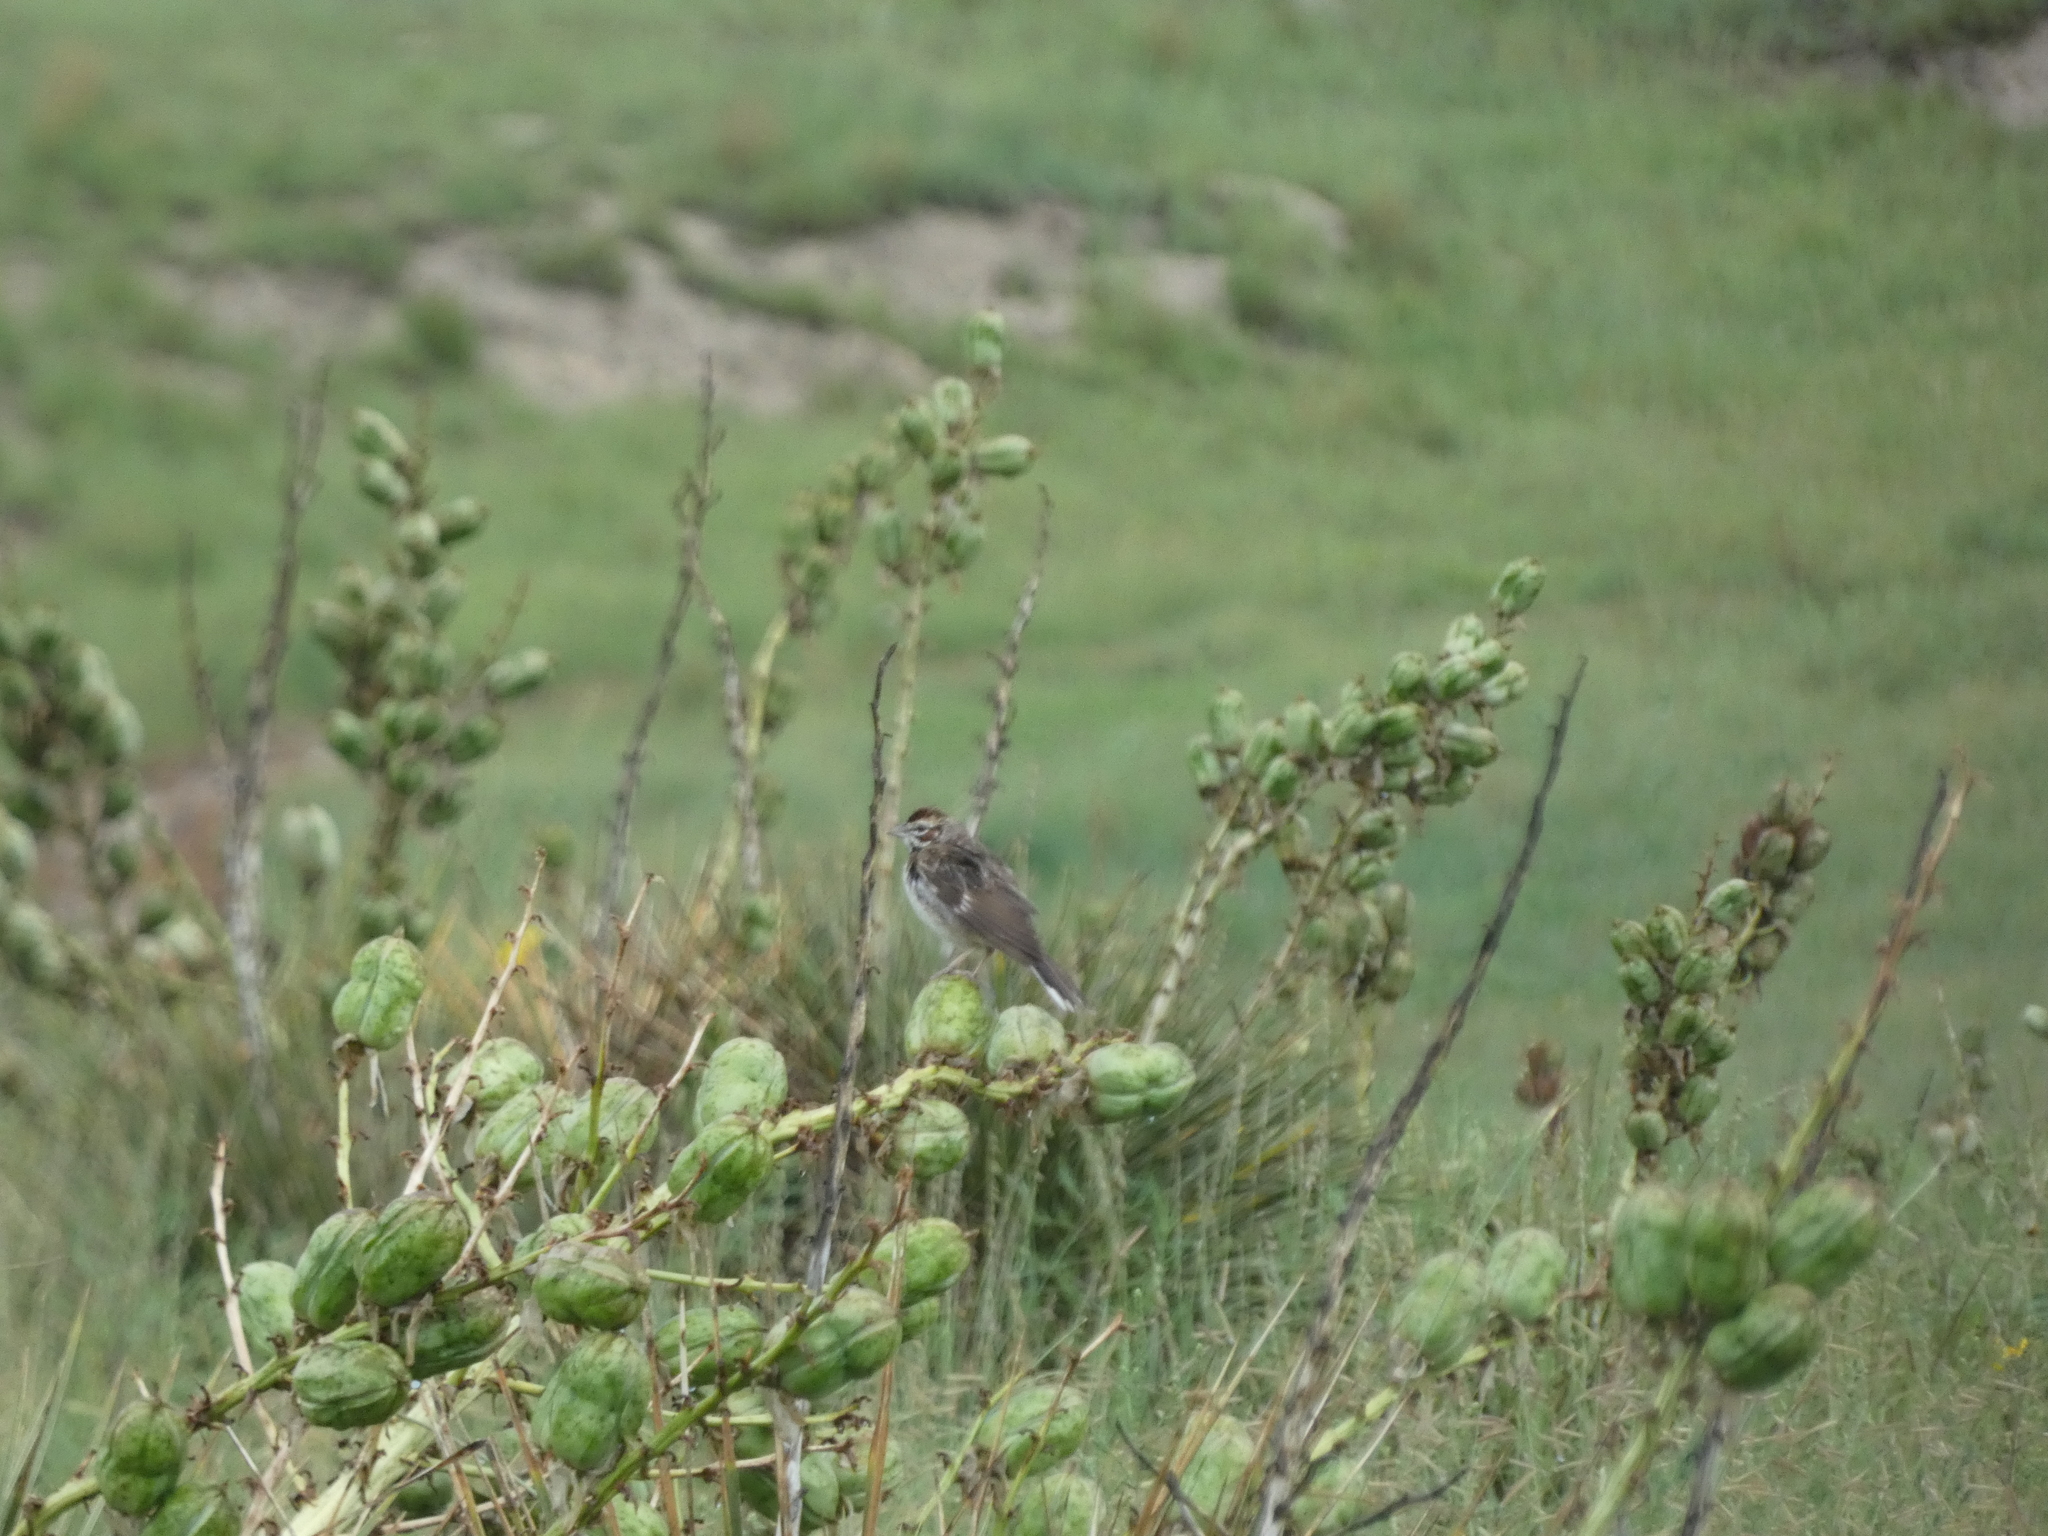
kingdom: Animalia
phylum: Chordata
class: Aves
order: Passeriformes
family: Passerellidae
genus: Chondestes
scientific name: Chondestes grammacus
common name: Lark sparrow
